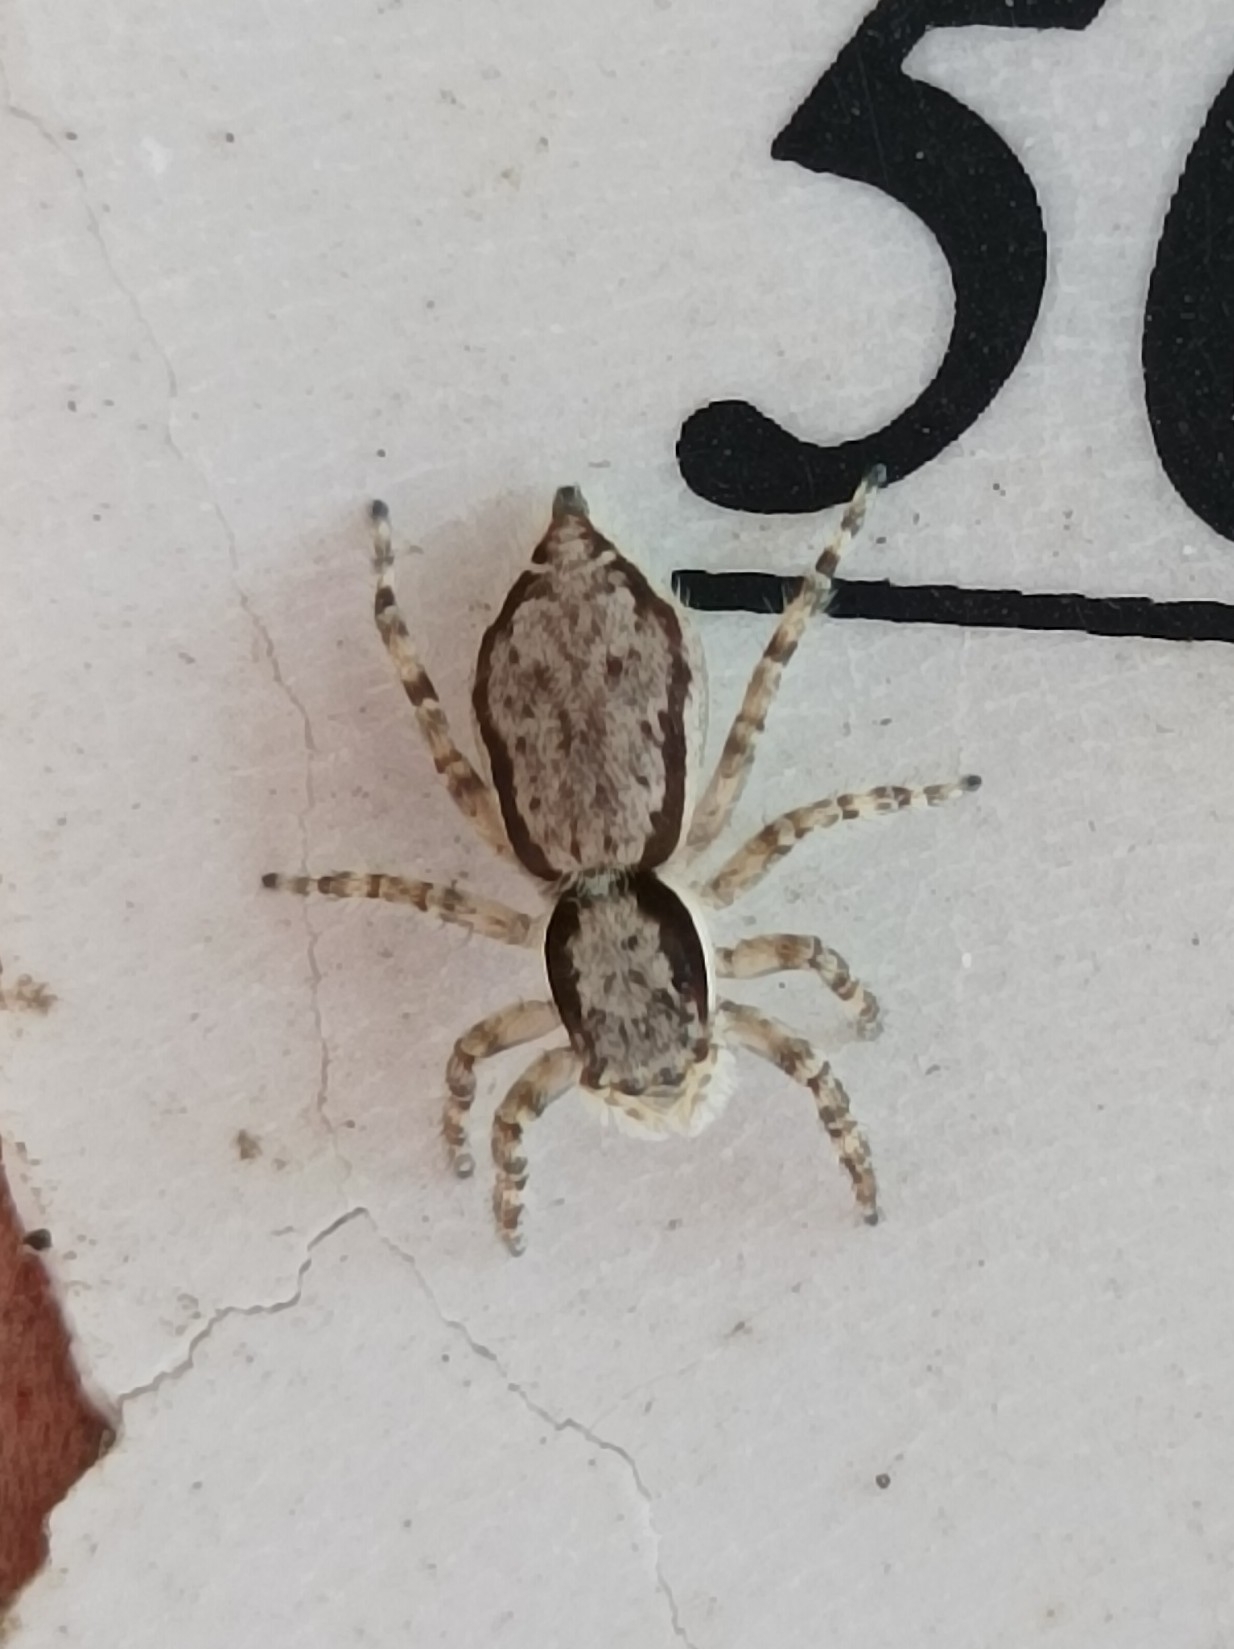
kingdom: Animalia
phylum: Arthropoda
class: Arachnida
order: Araneae
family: Salticidae
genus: Menemerus
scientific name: Menemerus bivittatus
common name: Gray wall jumper
